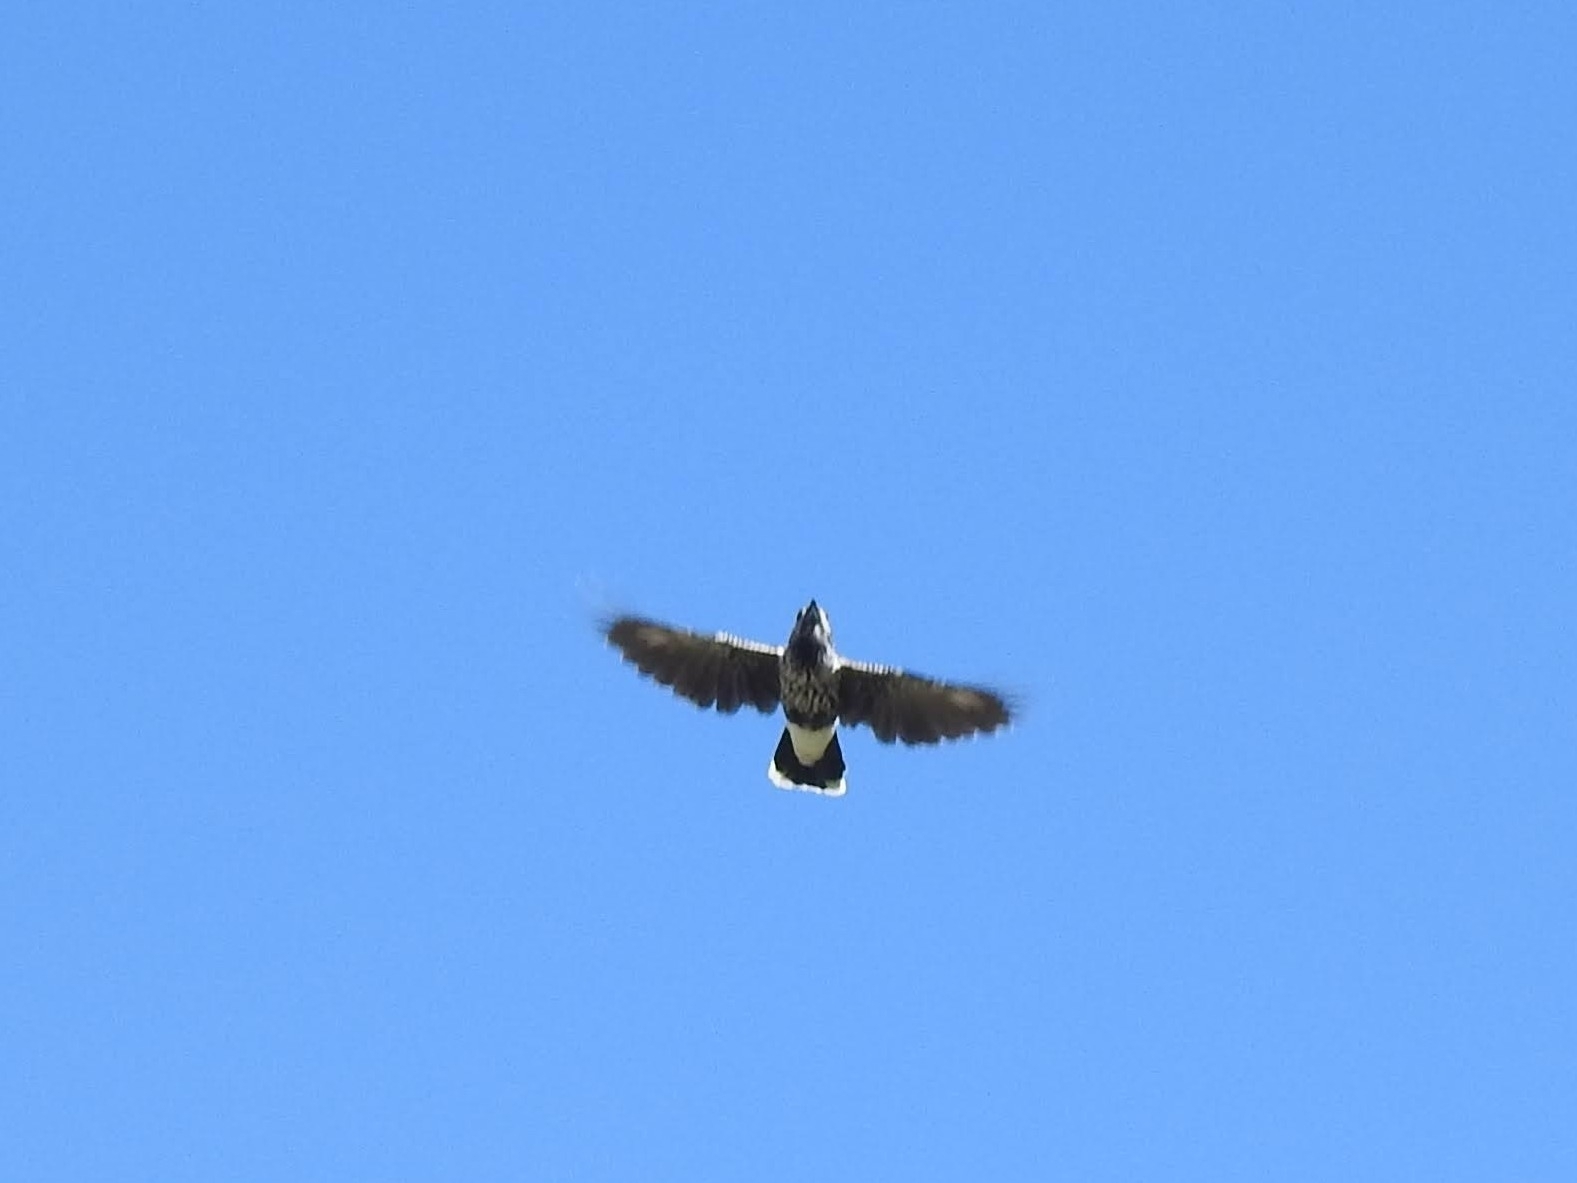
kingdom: Animalia
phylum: Chordata
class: Aves
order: Passeriformes
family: Corvidae
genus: Nucifraga
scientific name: Nucifraga caryocatactes
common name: Spotted nutcracker
